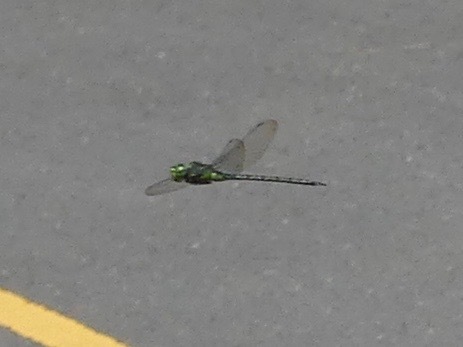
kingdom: Animalia
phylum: Arthropoda
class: Insecta
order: Odonata
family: Aeshnidae
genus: Coryphaeschna
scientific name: Coryphaeschna ingens
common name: Regal darner
